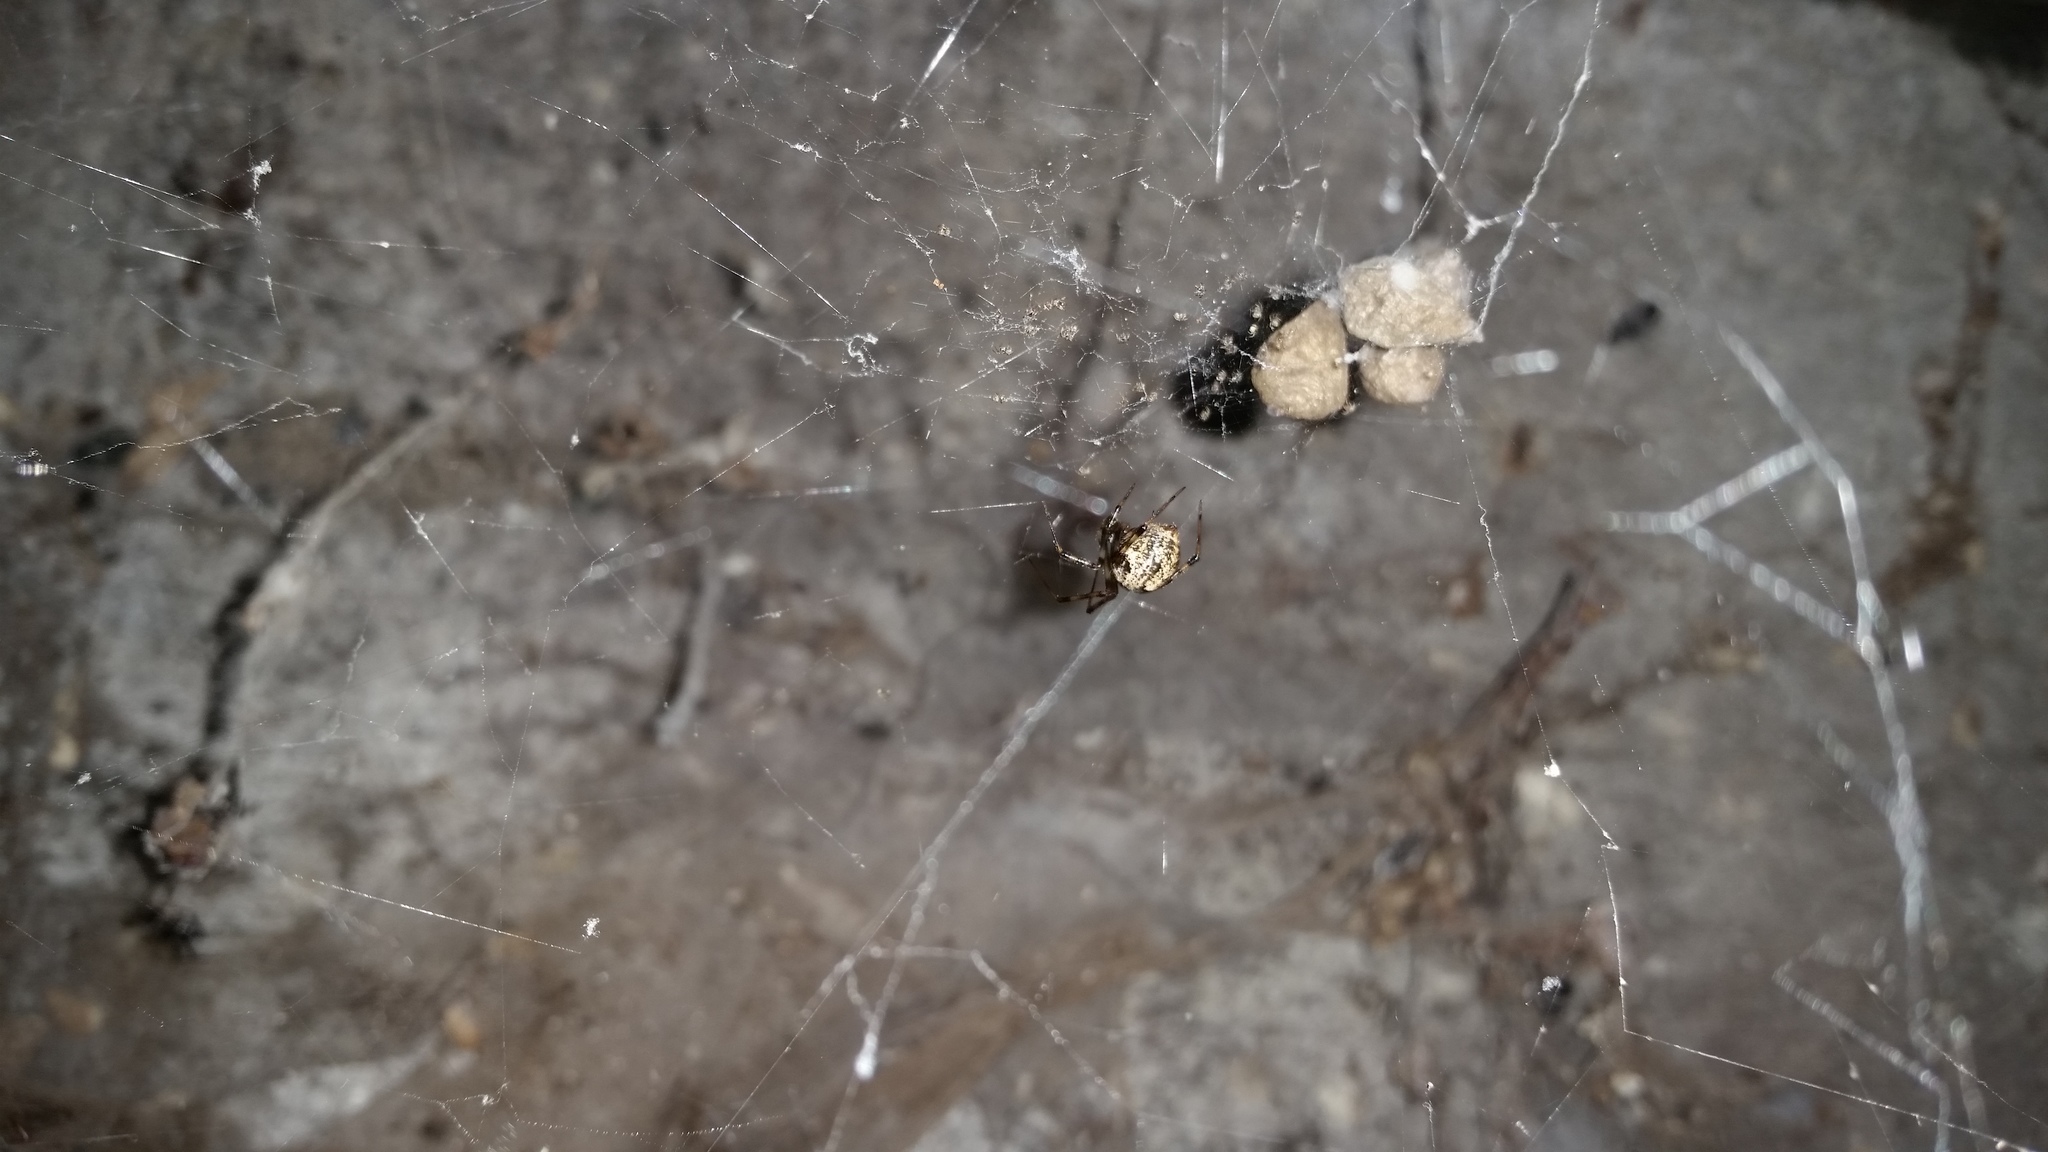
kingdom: Animalia
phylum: Arthropoda
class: Arachnida
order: Araneae
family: Theridiidae
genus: Parasteatoda
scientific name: Parasteatoda tepidariorum
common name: Common house spider
